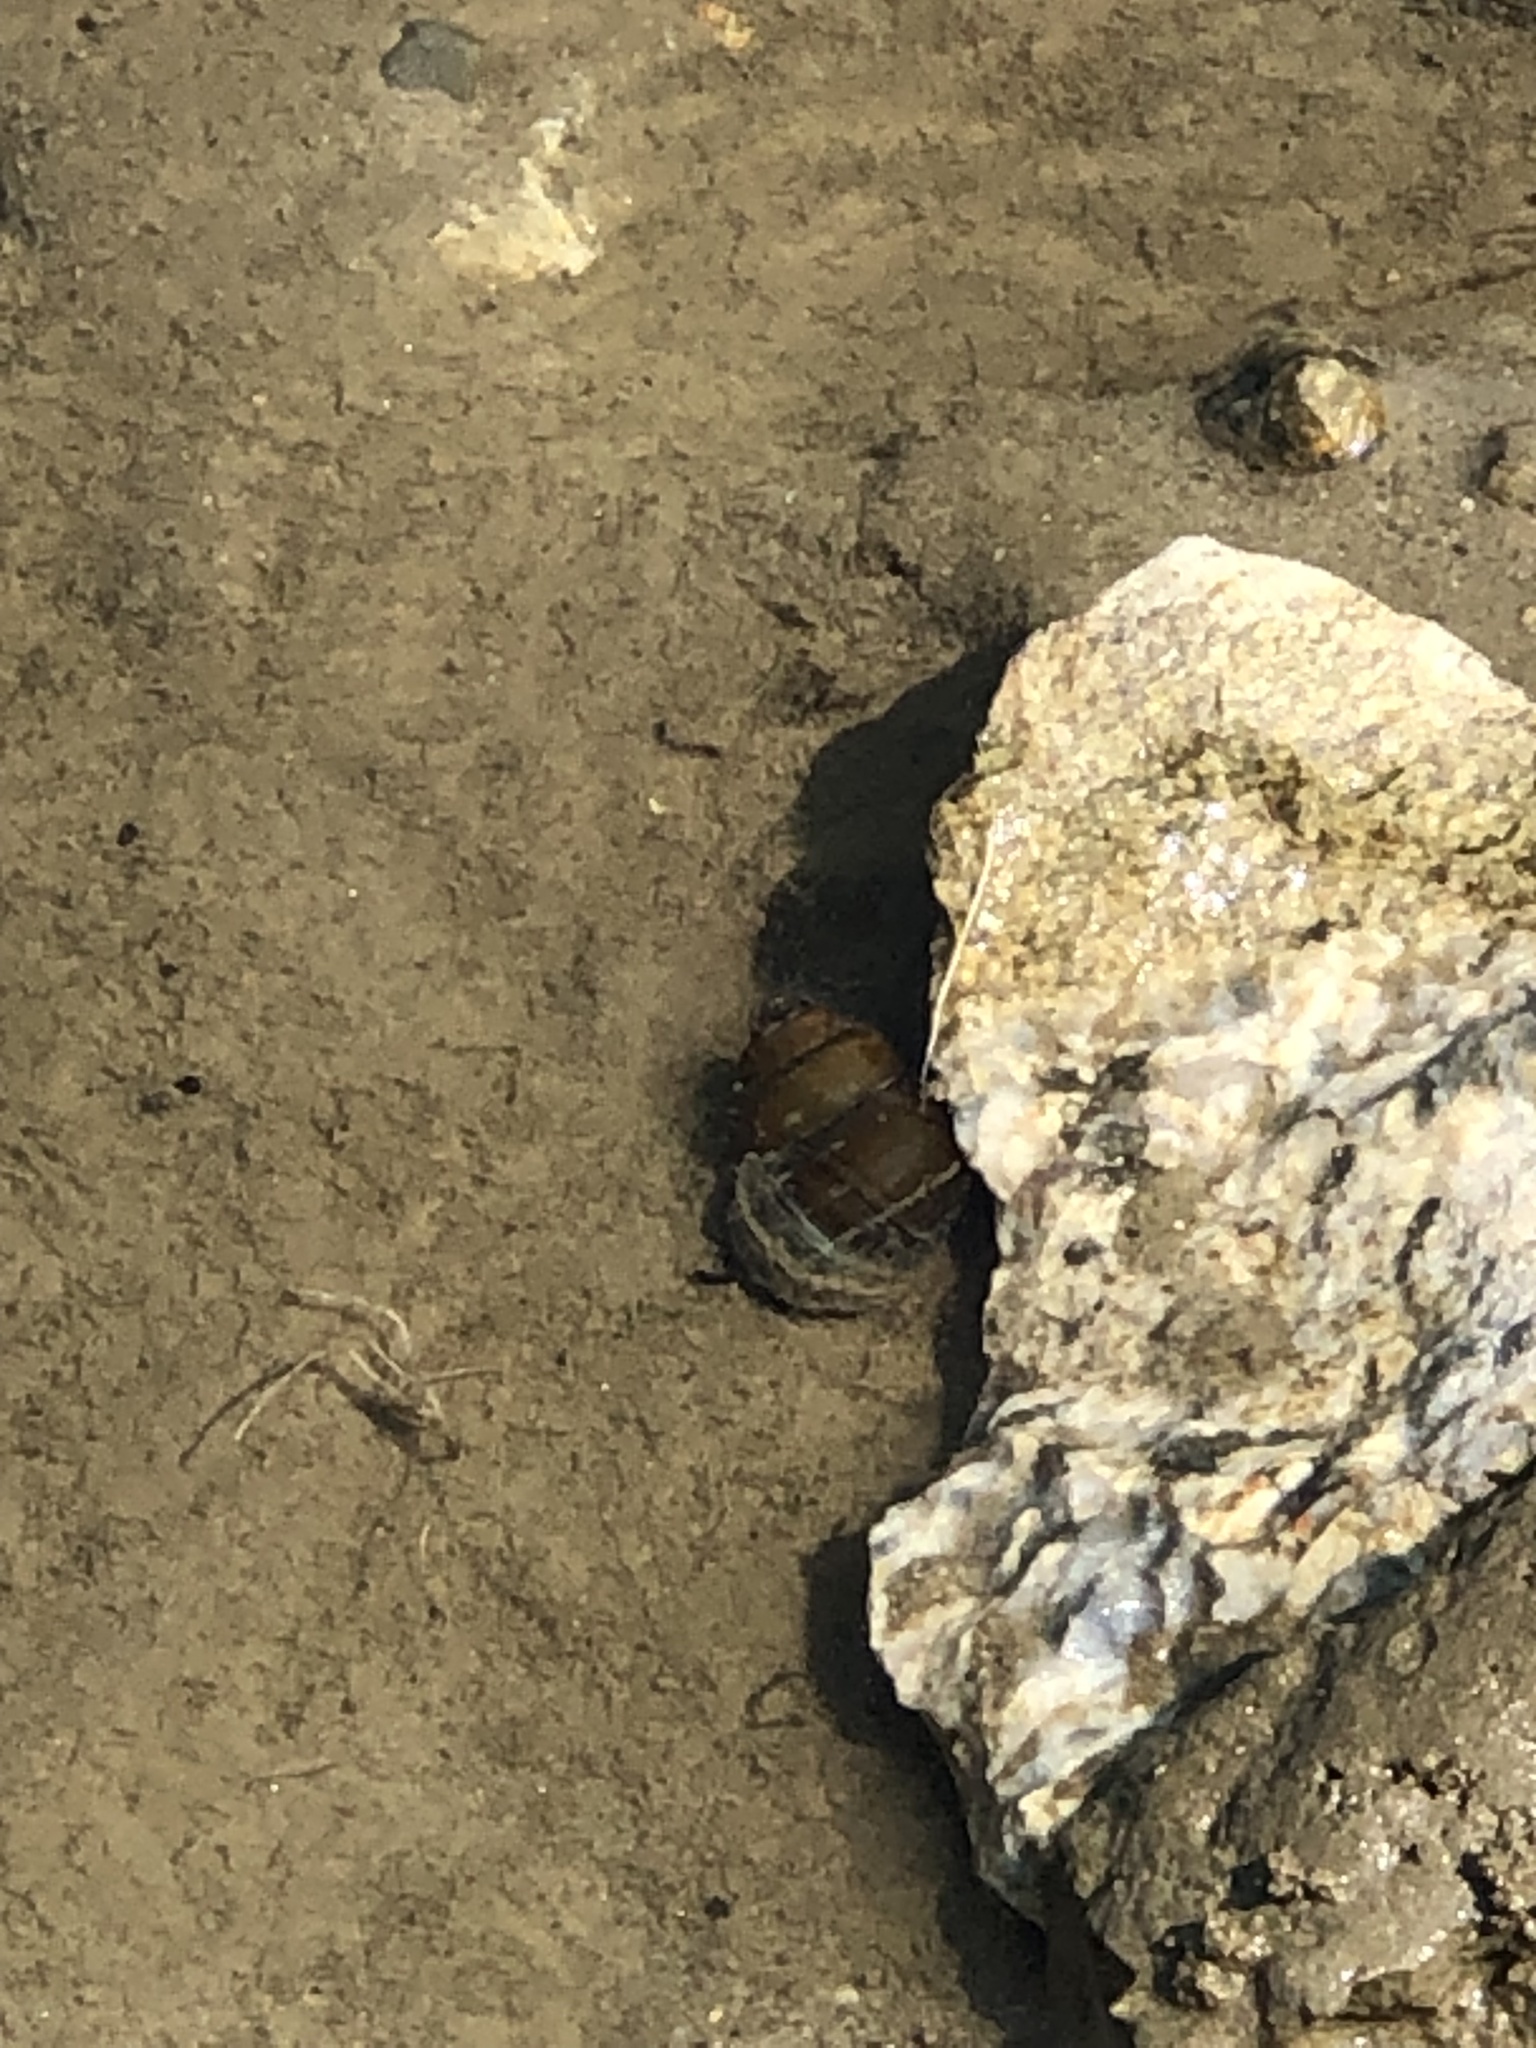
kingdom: Animalia
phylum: Mollusca
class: Gastropoda
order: Architaenioglossa
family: Viviparidae
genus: Cipangopaludina
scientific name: Cipangopaludina chinensis
